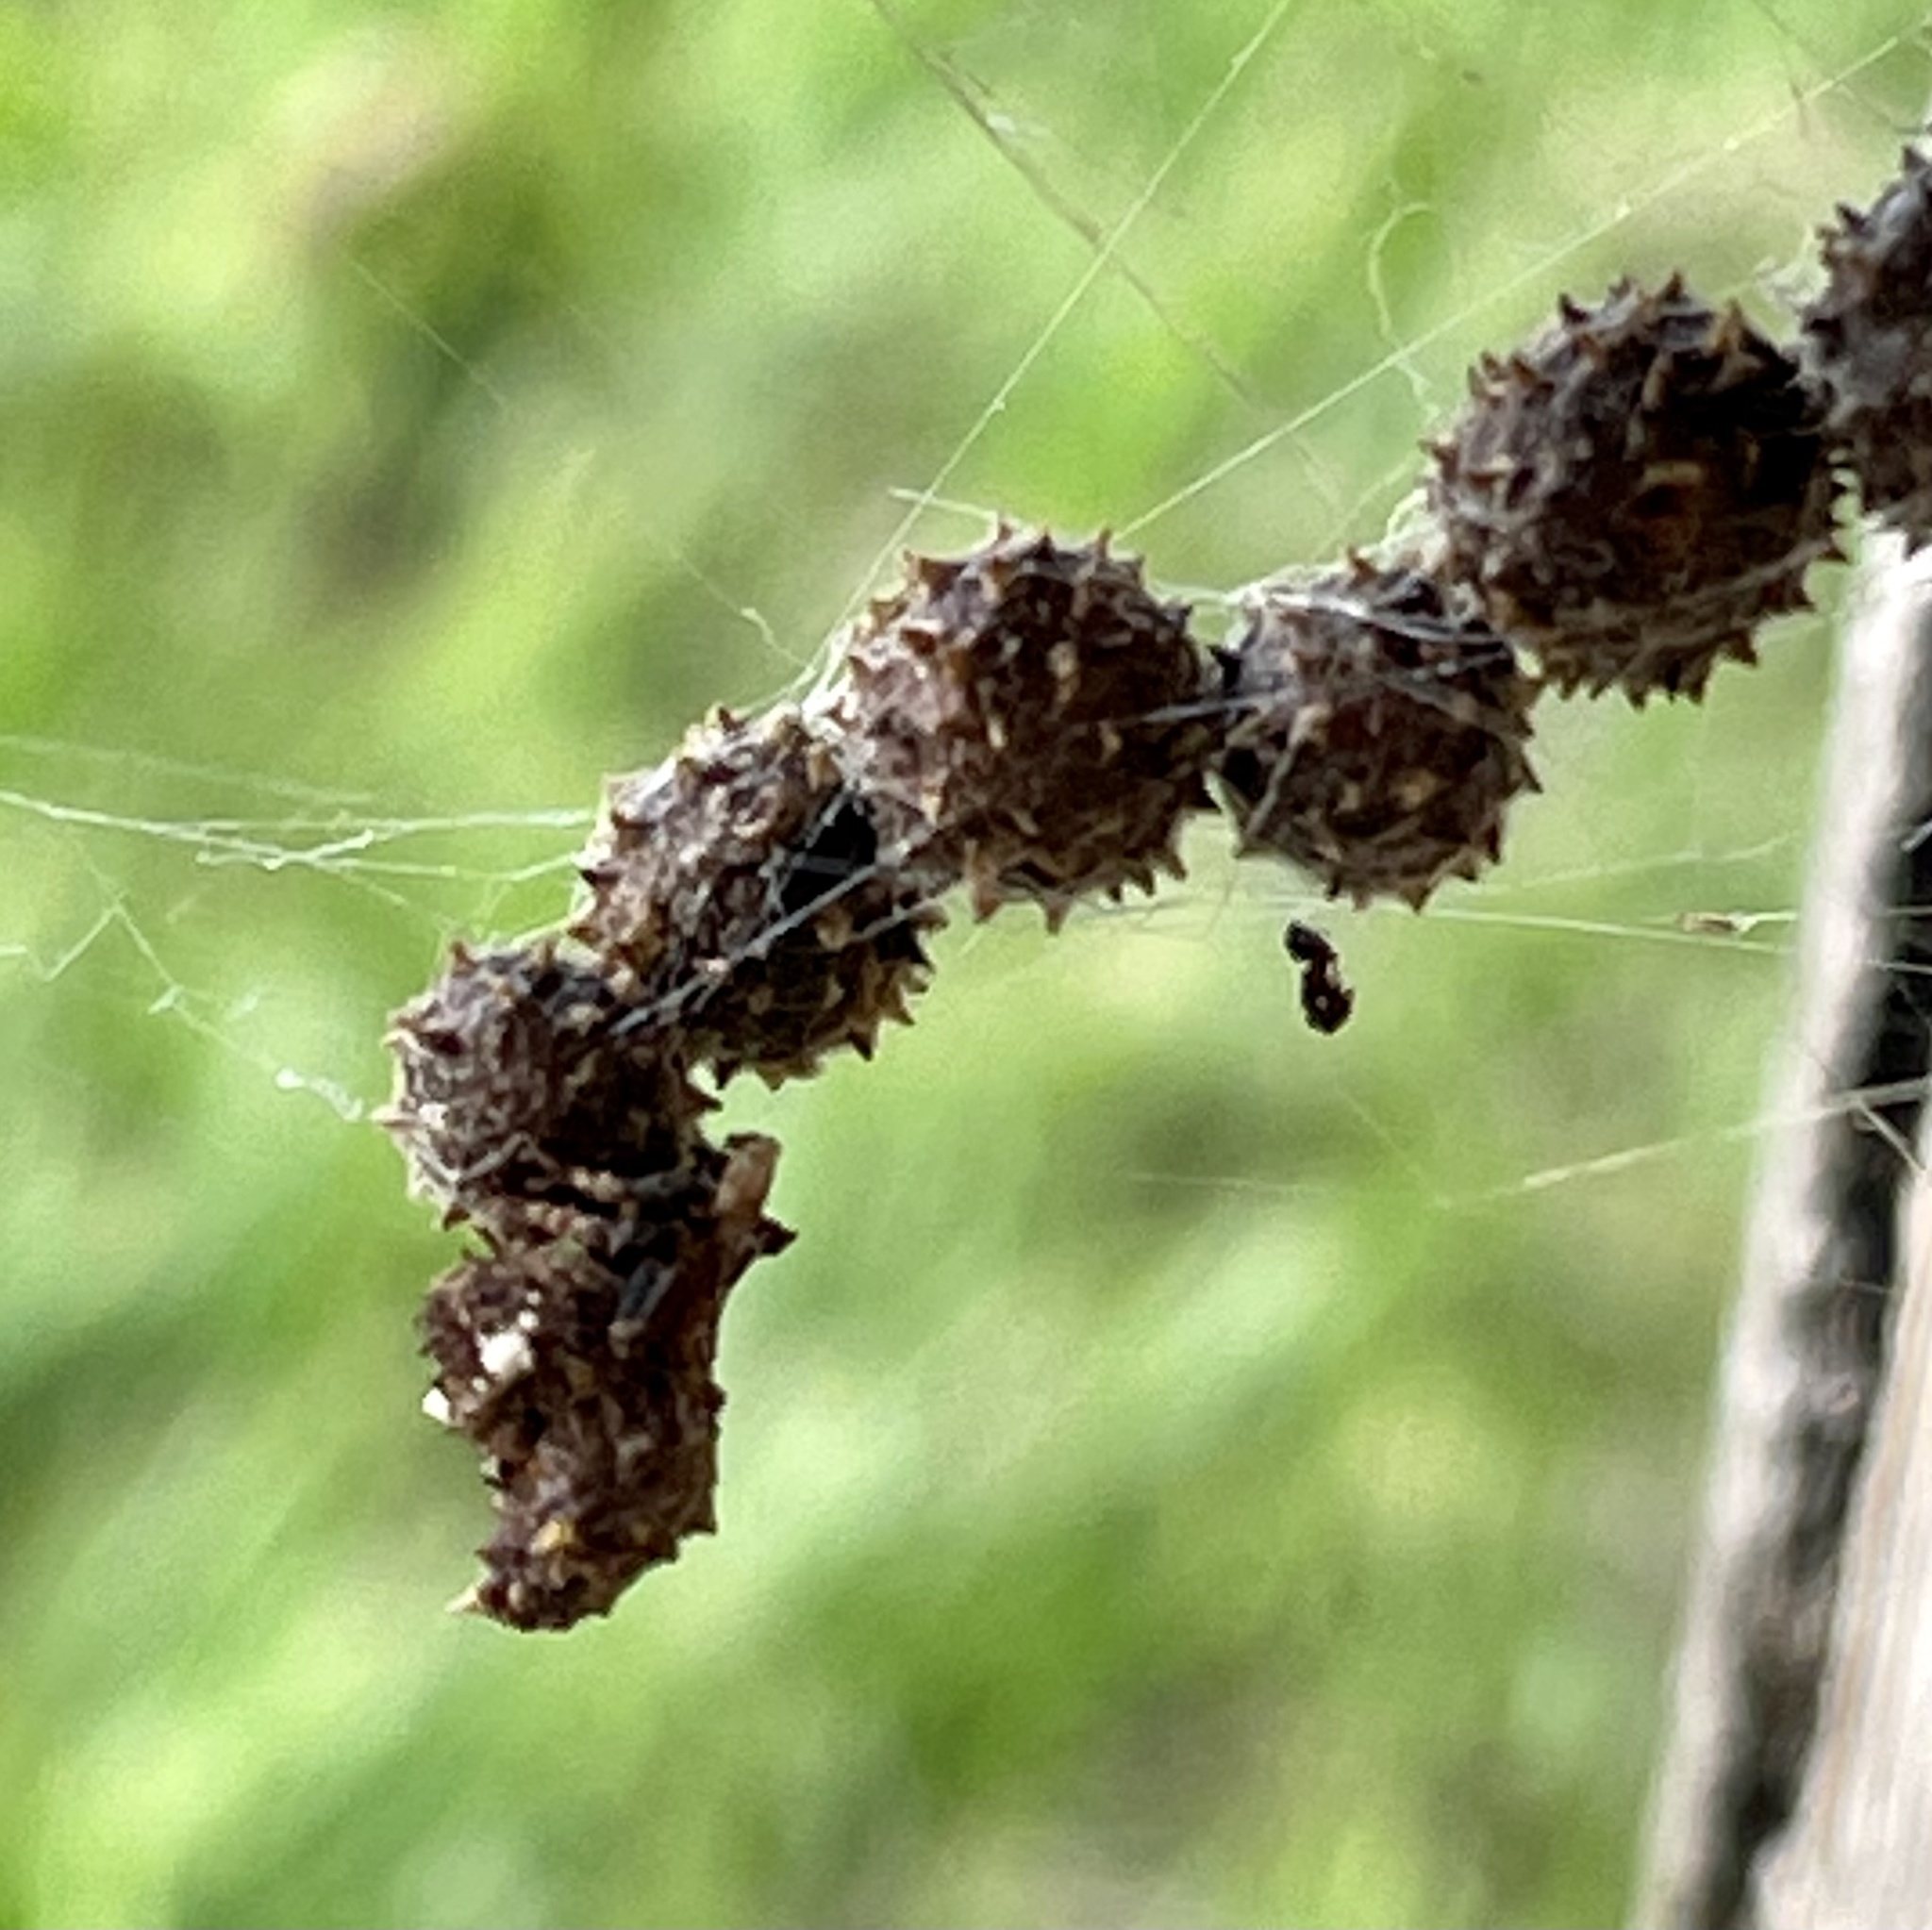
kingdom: Animalia
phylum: Arthropoda
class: Arachnida
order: Araneae
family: Araneidae
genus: Celaenia
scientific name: Celaenia calotoides
